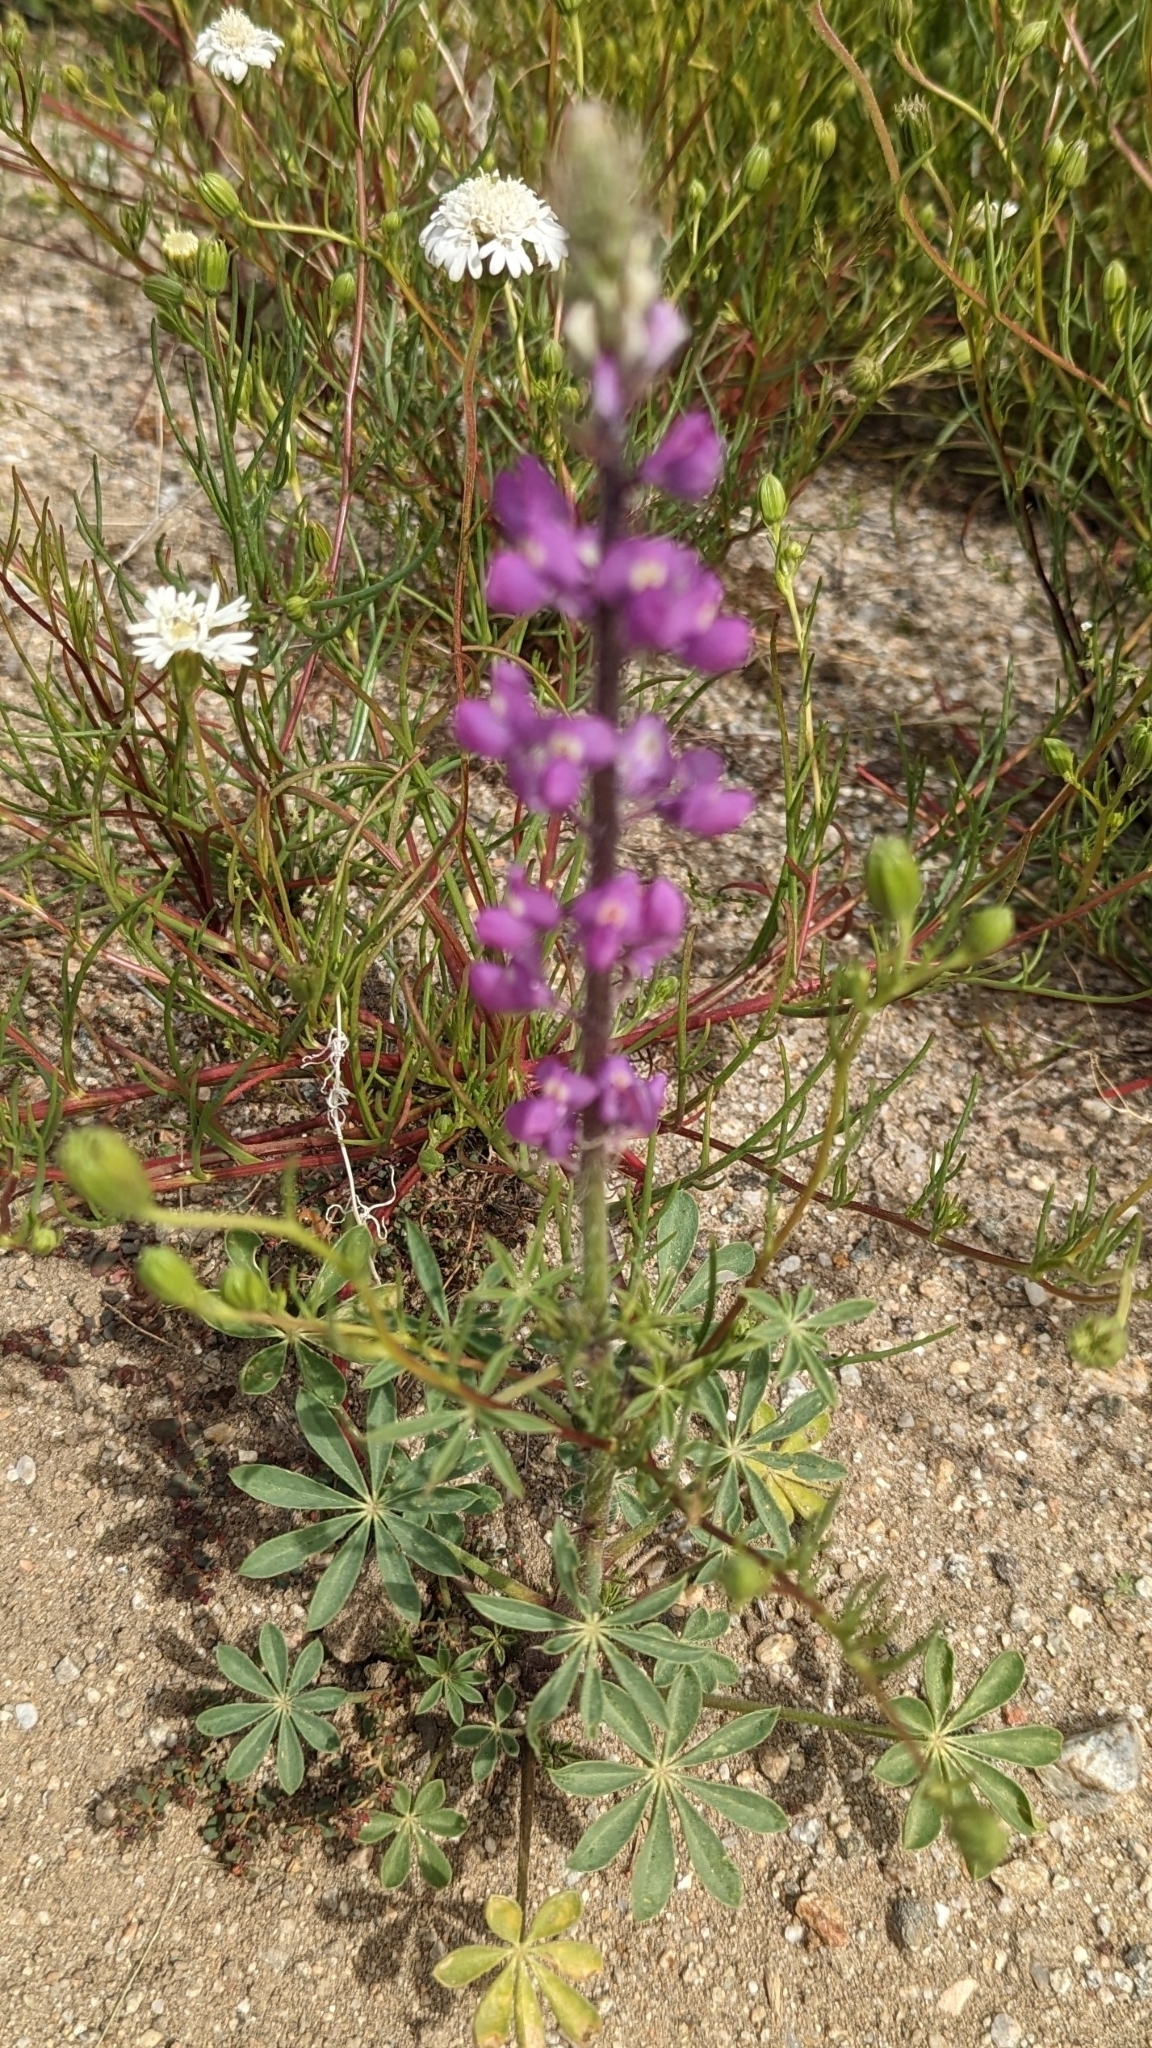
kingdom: Plantae
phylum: Tracheophyta
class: Magnoliopsida
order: Fabales
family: Fabaceae
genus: Lupinus
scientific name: Lupinus arizonicus
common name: Arizona lupine
